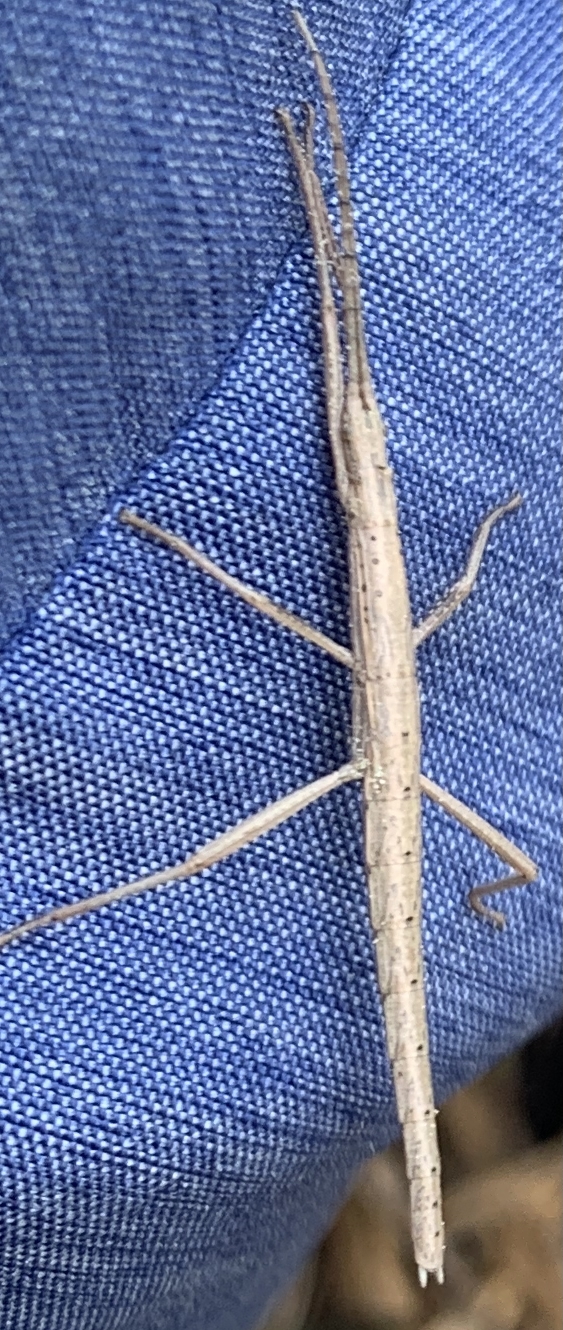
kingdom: Animalia
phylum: Arthropoda
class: Insecta
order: Phasmida
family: Pseudophasmatidae
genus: Anisomorpha
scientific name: Anisomorpha buprestoides
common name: Florida stick insect
